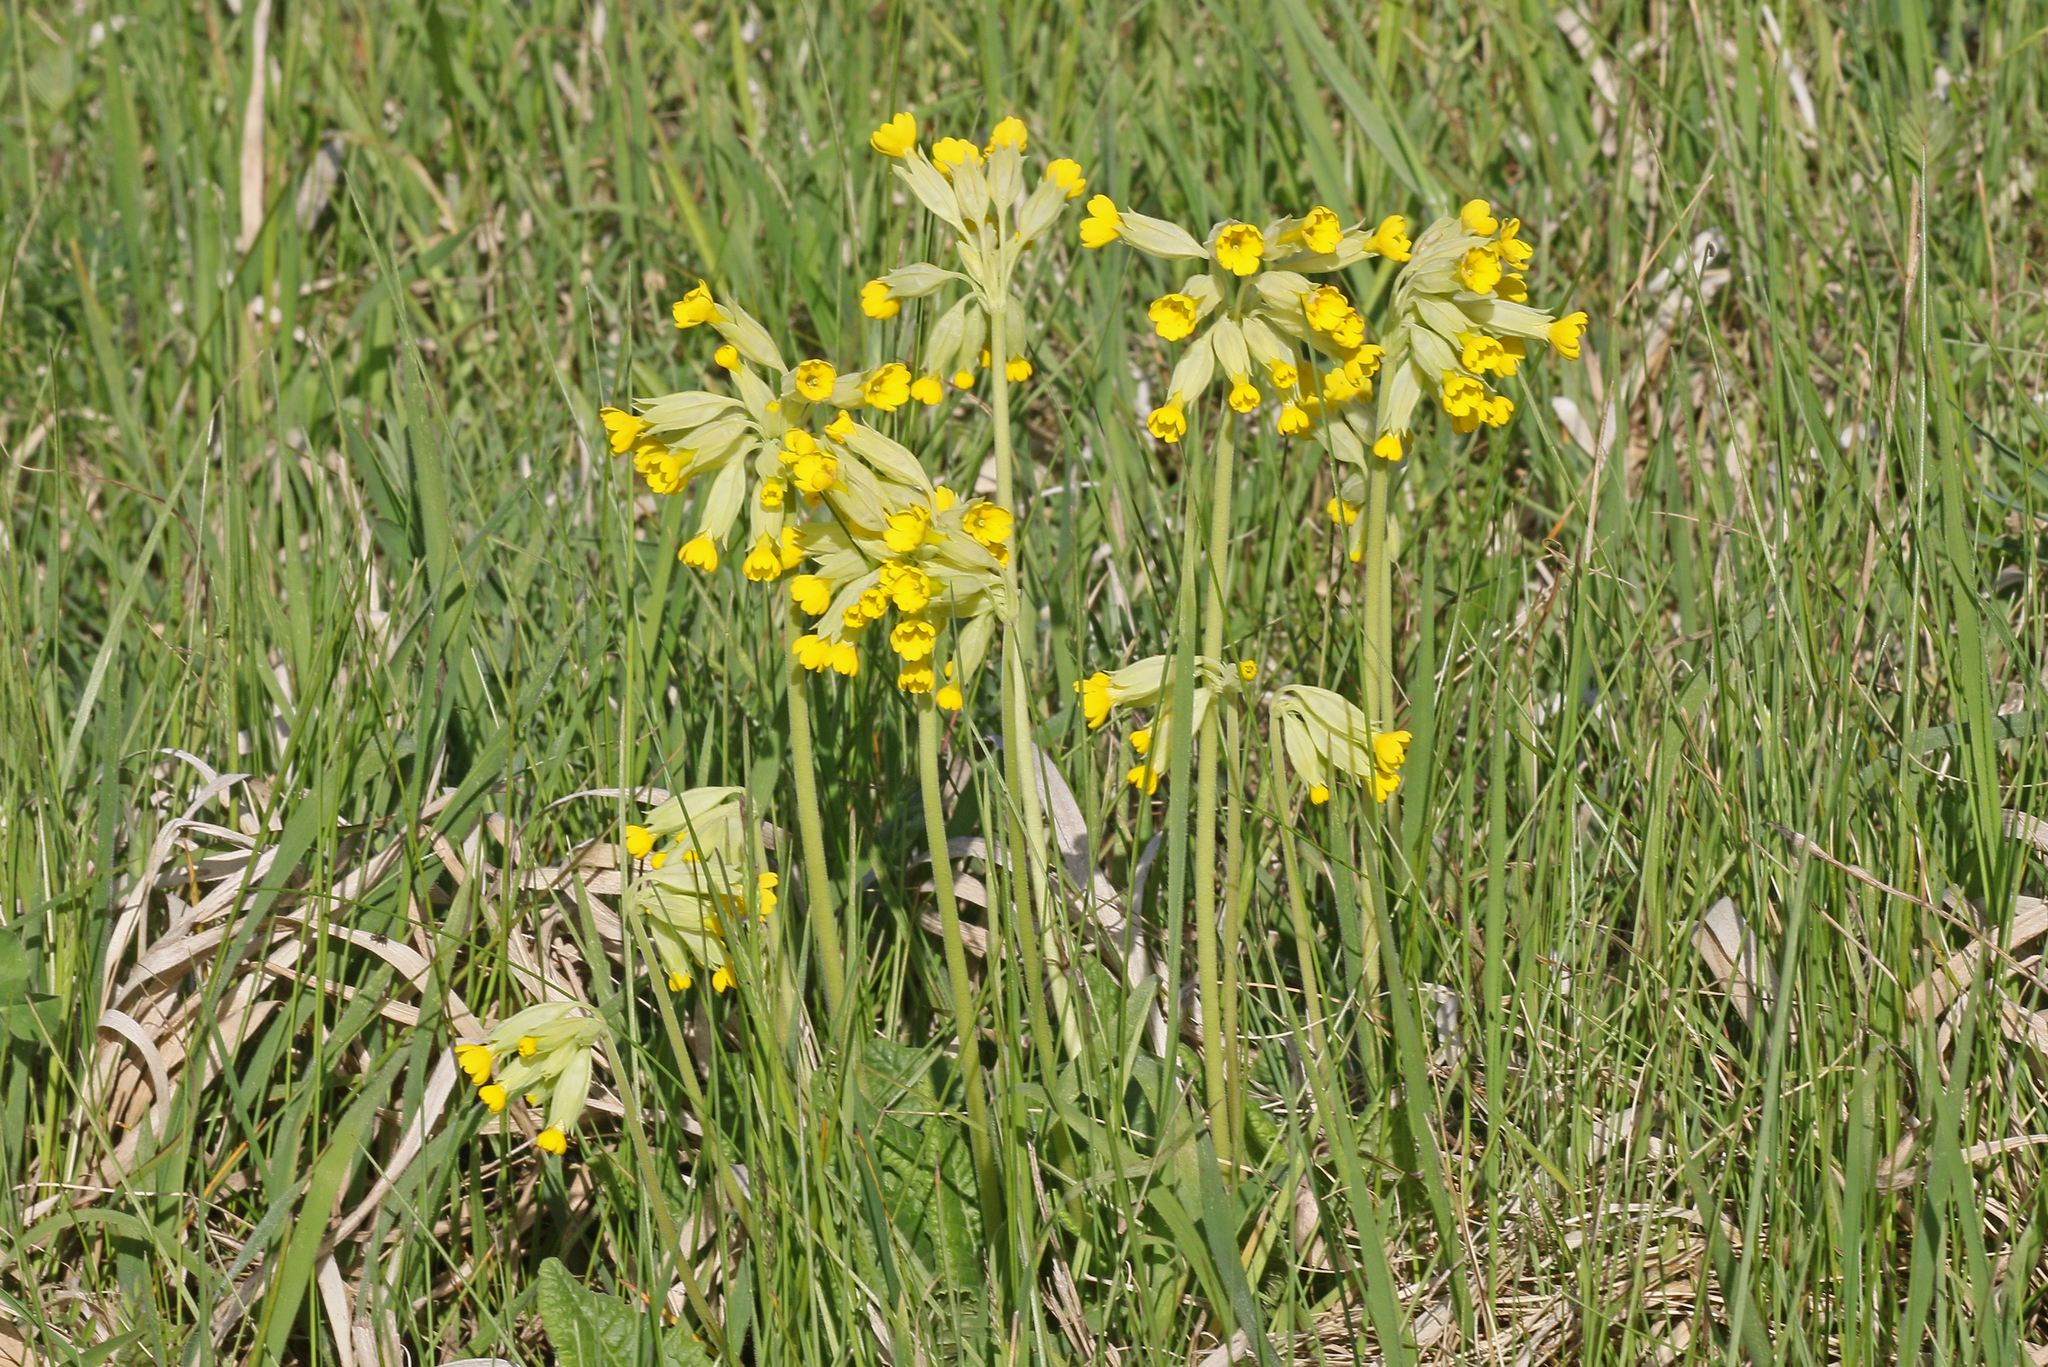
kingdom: Plantae
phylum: Tracheophyta
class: Magnoliopsida
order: Ericales
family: Primulaceae
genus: Primula
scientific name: Primula veris
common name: Cowslip
